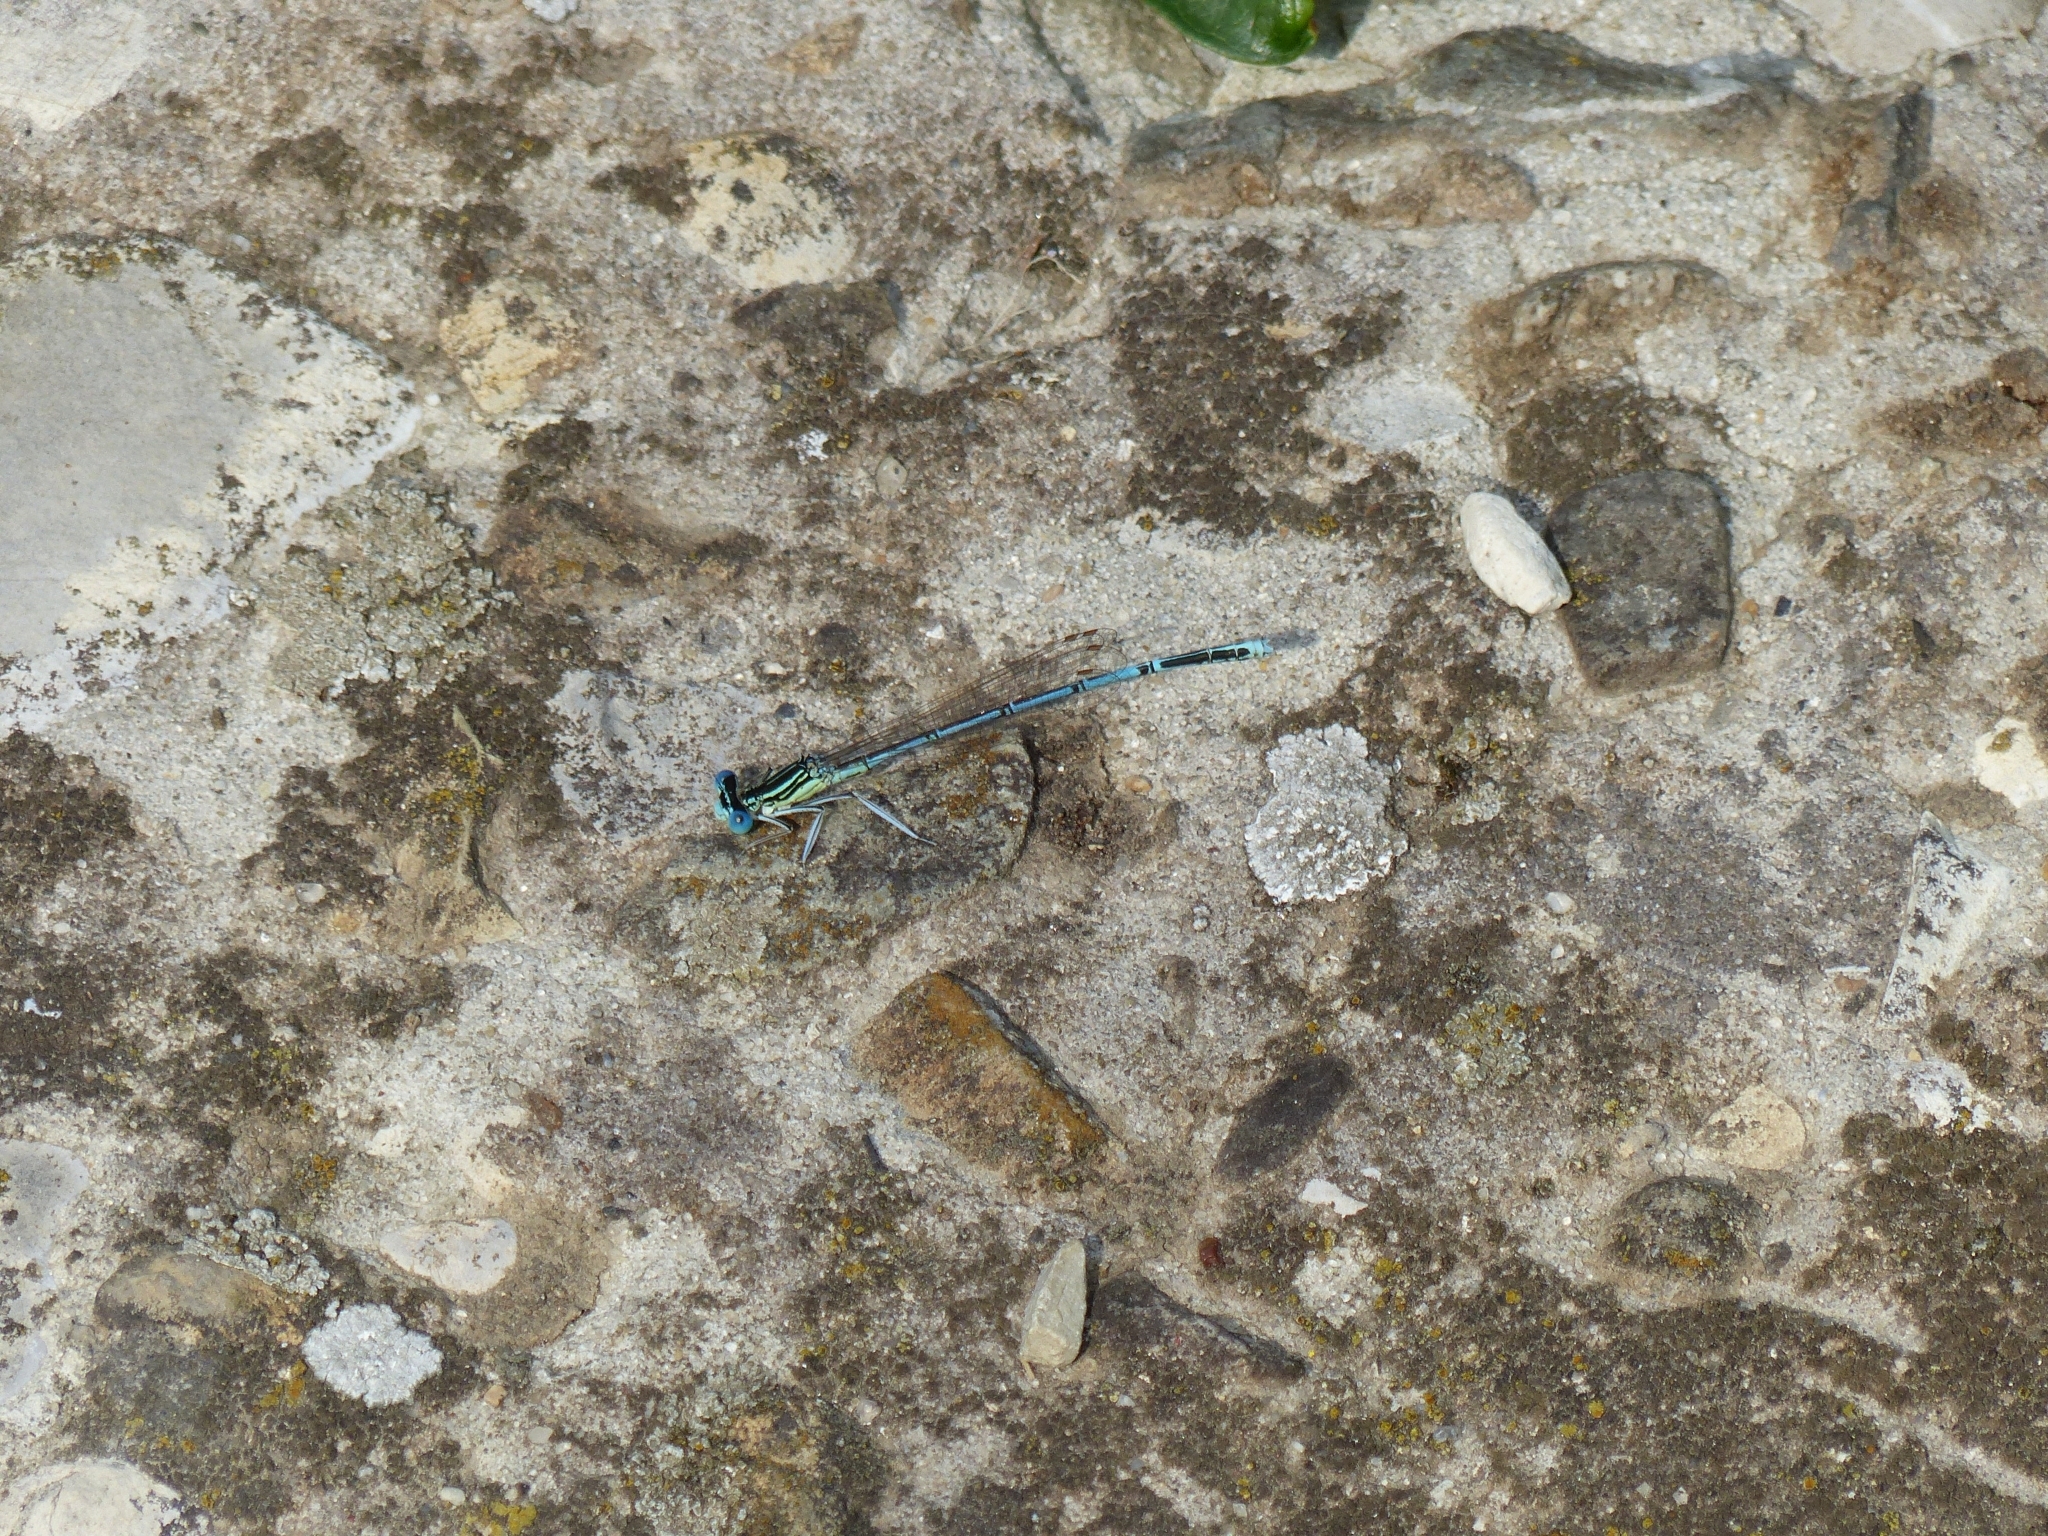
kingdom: Animalia
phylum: Arthropoda
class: Insecta
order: Odonata
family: Platycnemididae
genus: Platycnemis
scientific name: Platycnemis pennipes
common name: White-legged damselfly
